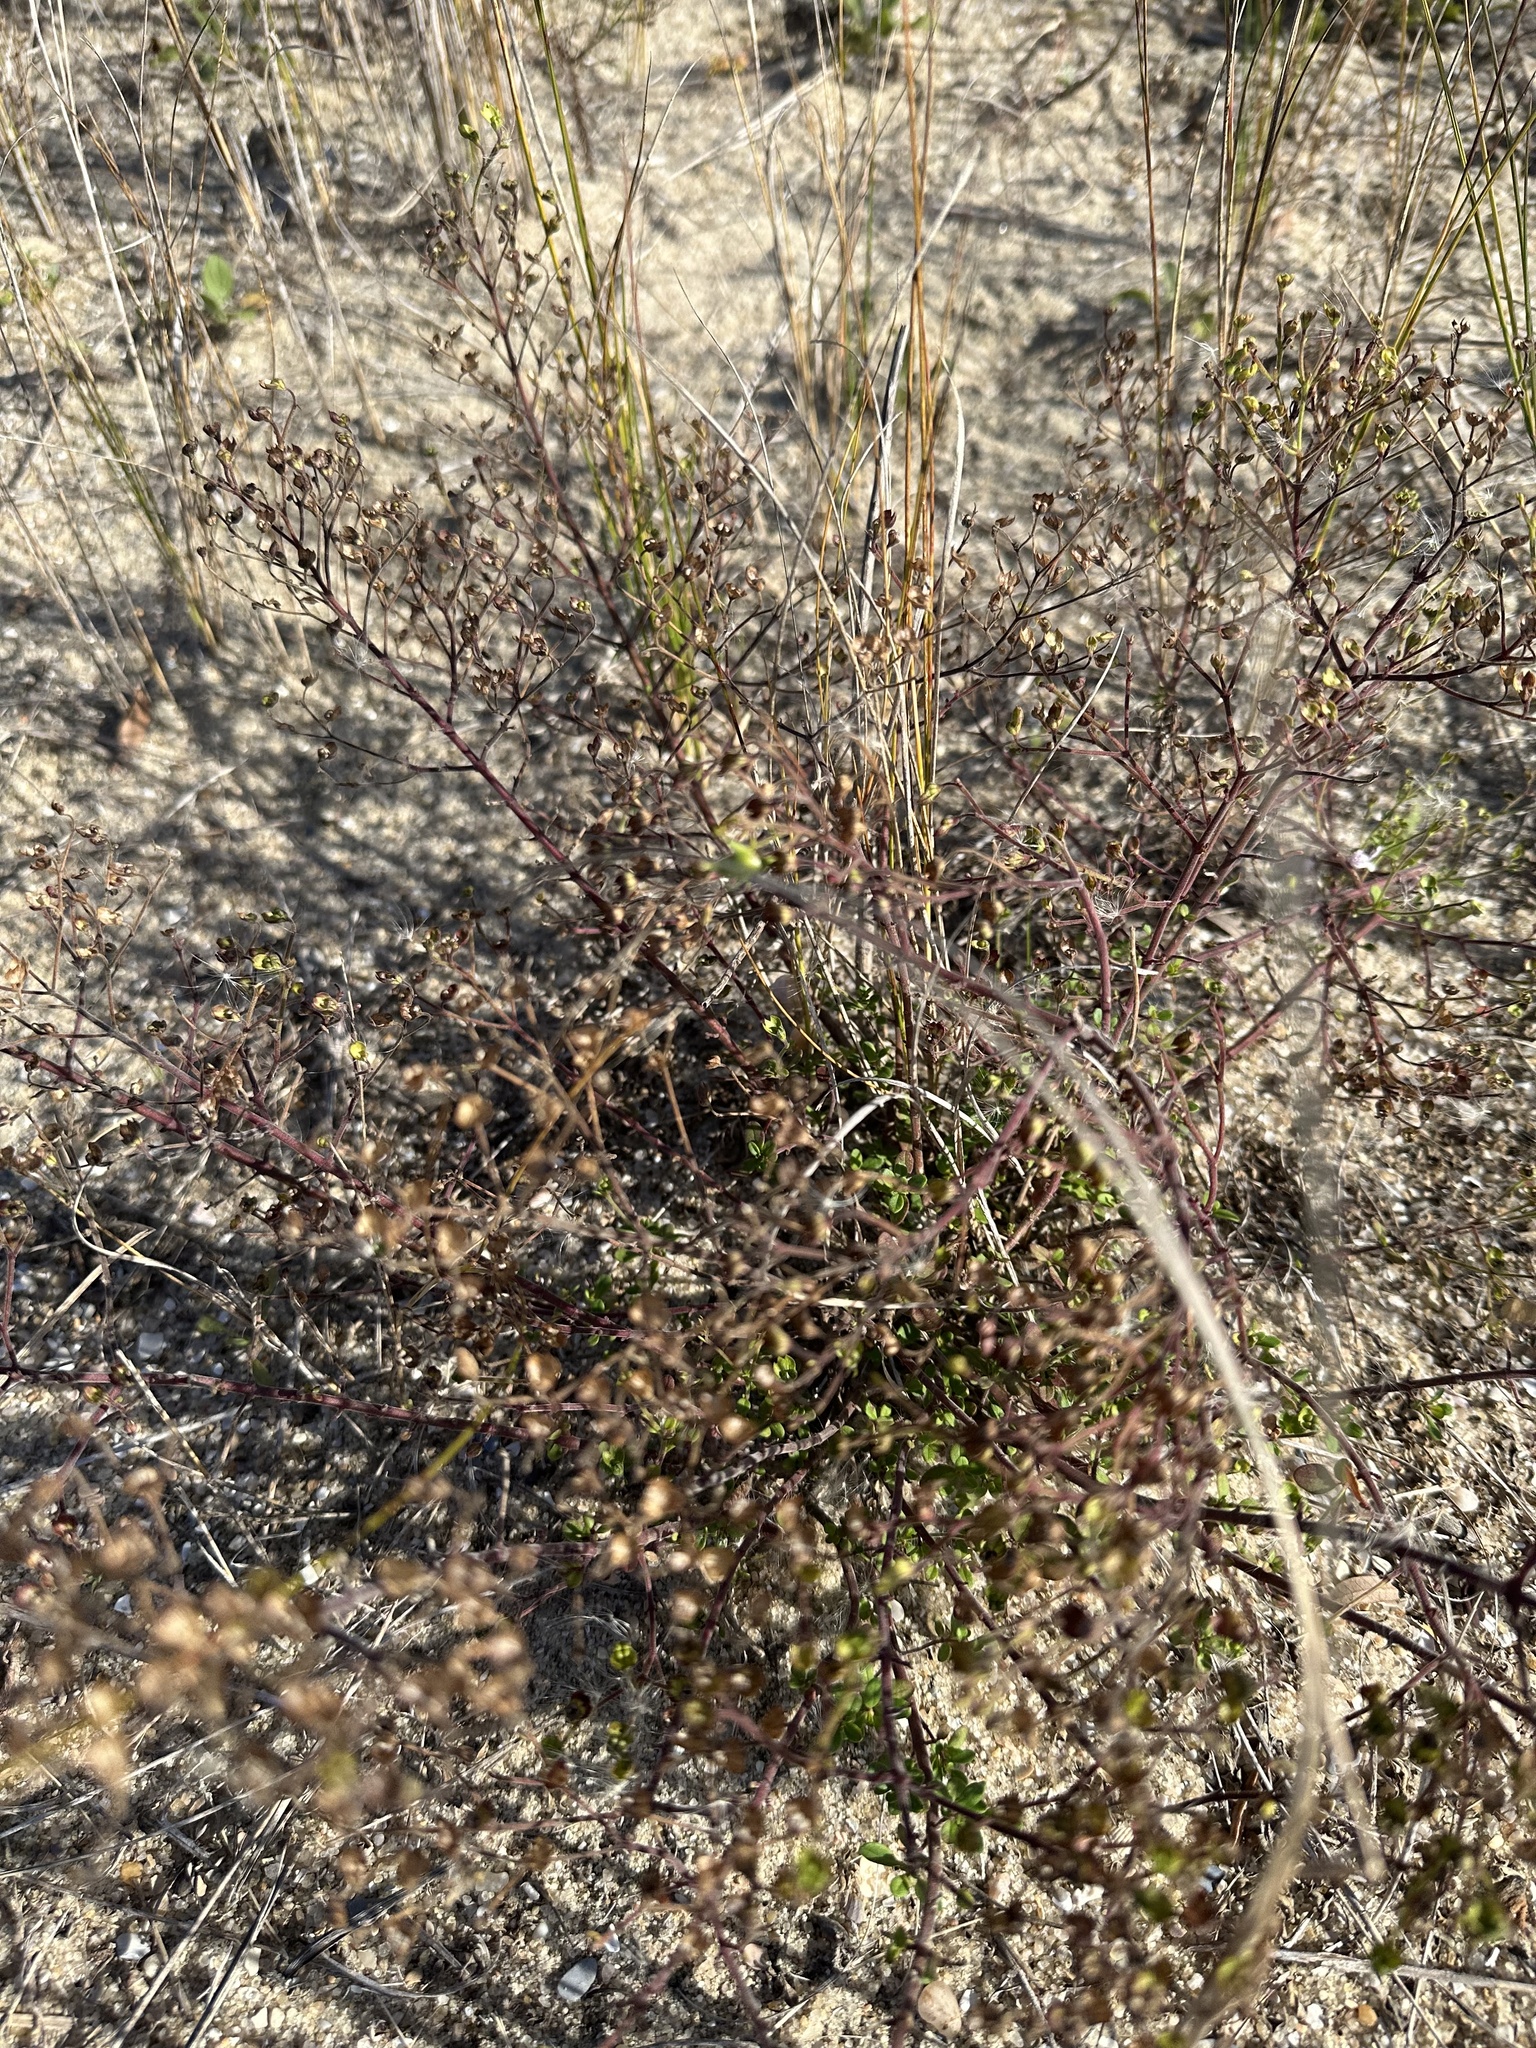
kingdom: Plantae
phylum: Tracheophyta
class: Magnoliopsida
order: Lamiales
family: Lamiaceae
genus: Trichostema
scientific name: Trichostema nesophilum
